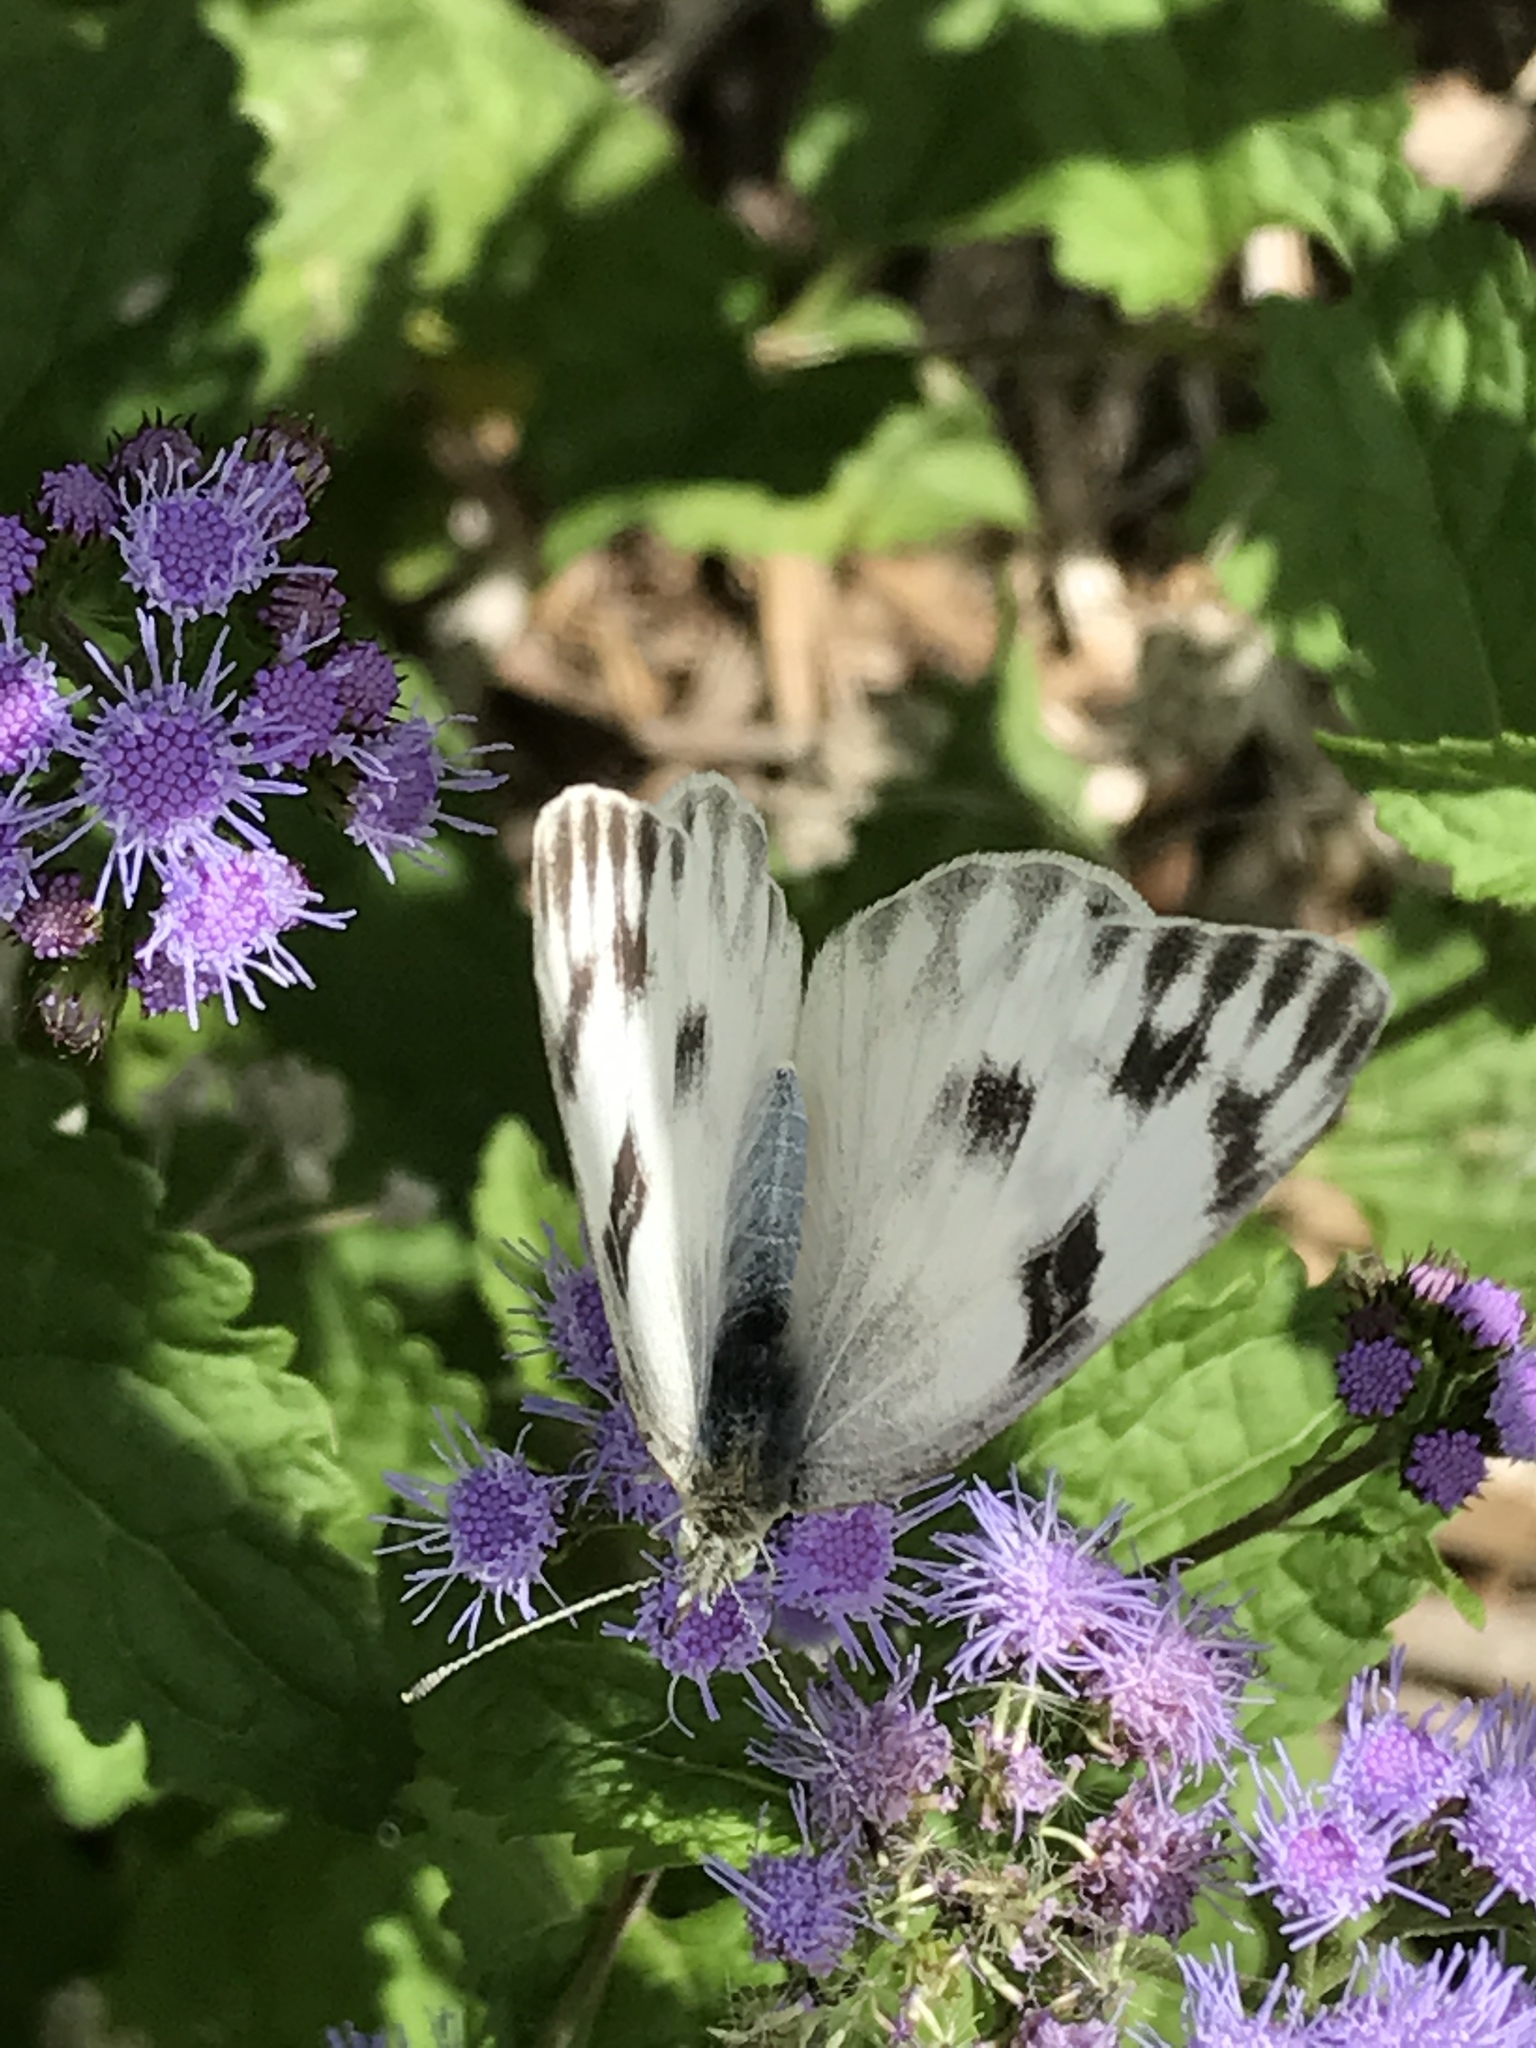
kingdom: Animalia
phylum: Arthropoda
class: Insecta
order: Lepidoptera
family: Pieridae
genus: Pontia
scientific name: Pontia protodice
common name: Checkered white
